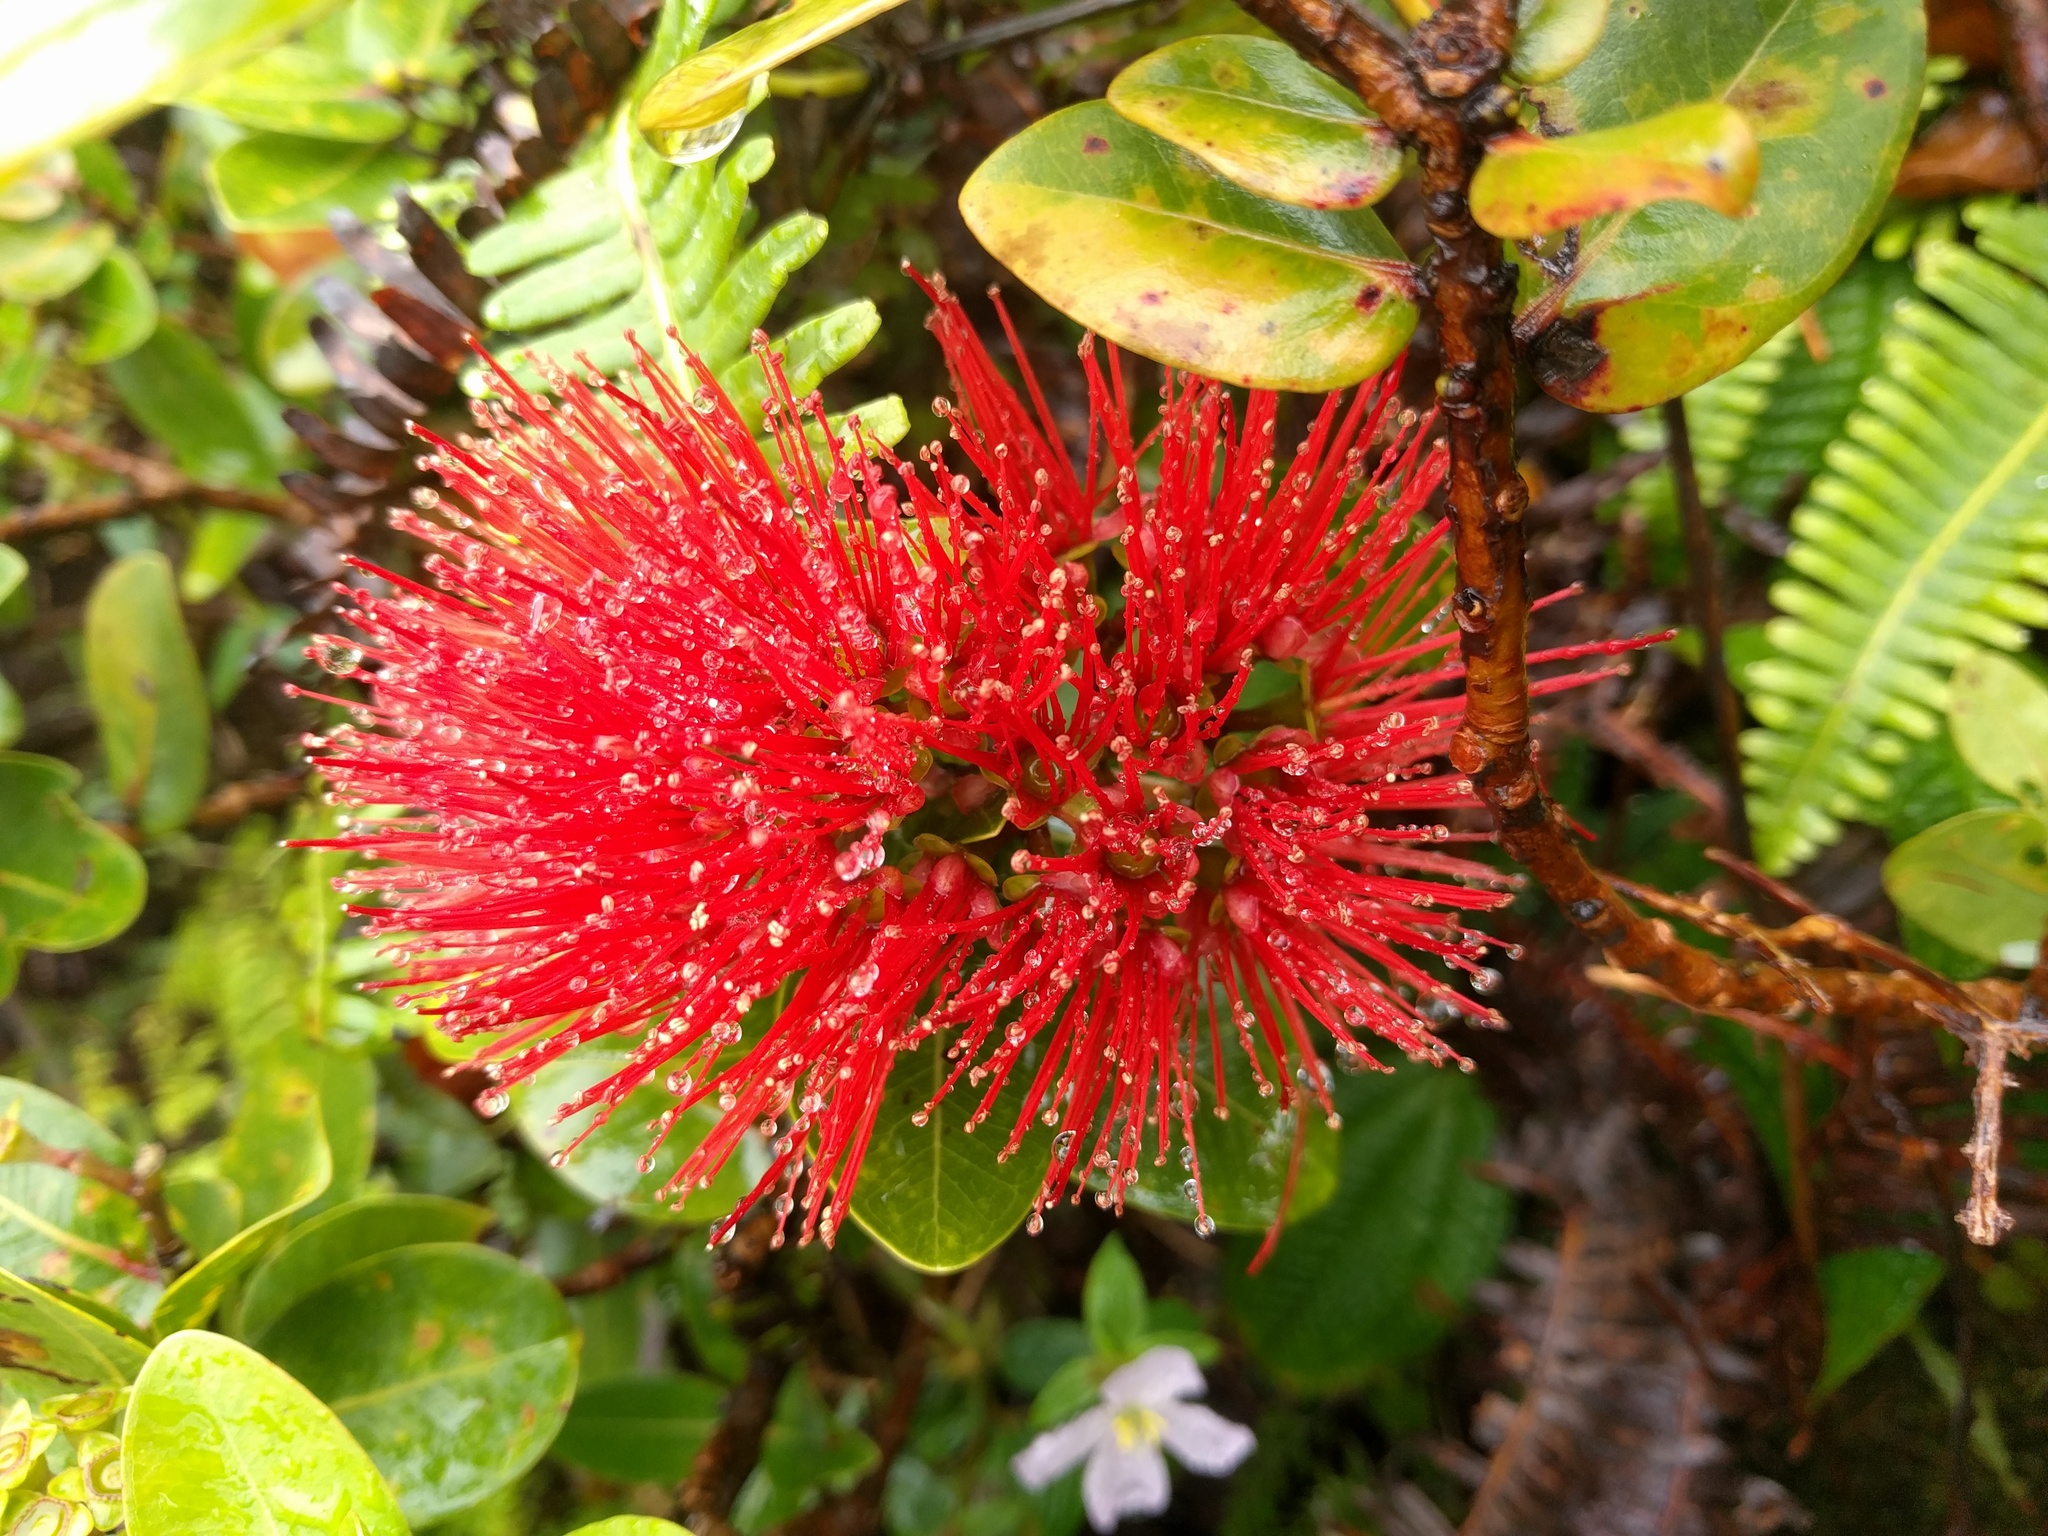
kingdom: Plantae
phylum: Tracheophyta
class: Magnoliopsida
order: Myrtales
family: Myrtaceae
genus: Metrosideros
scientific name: Metrosideros polymorpha
